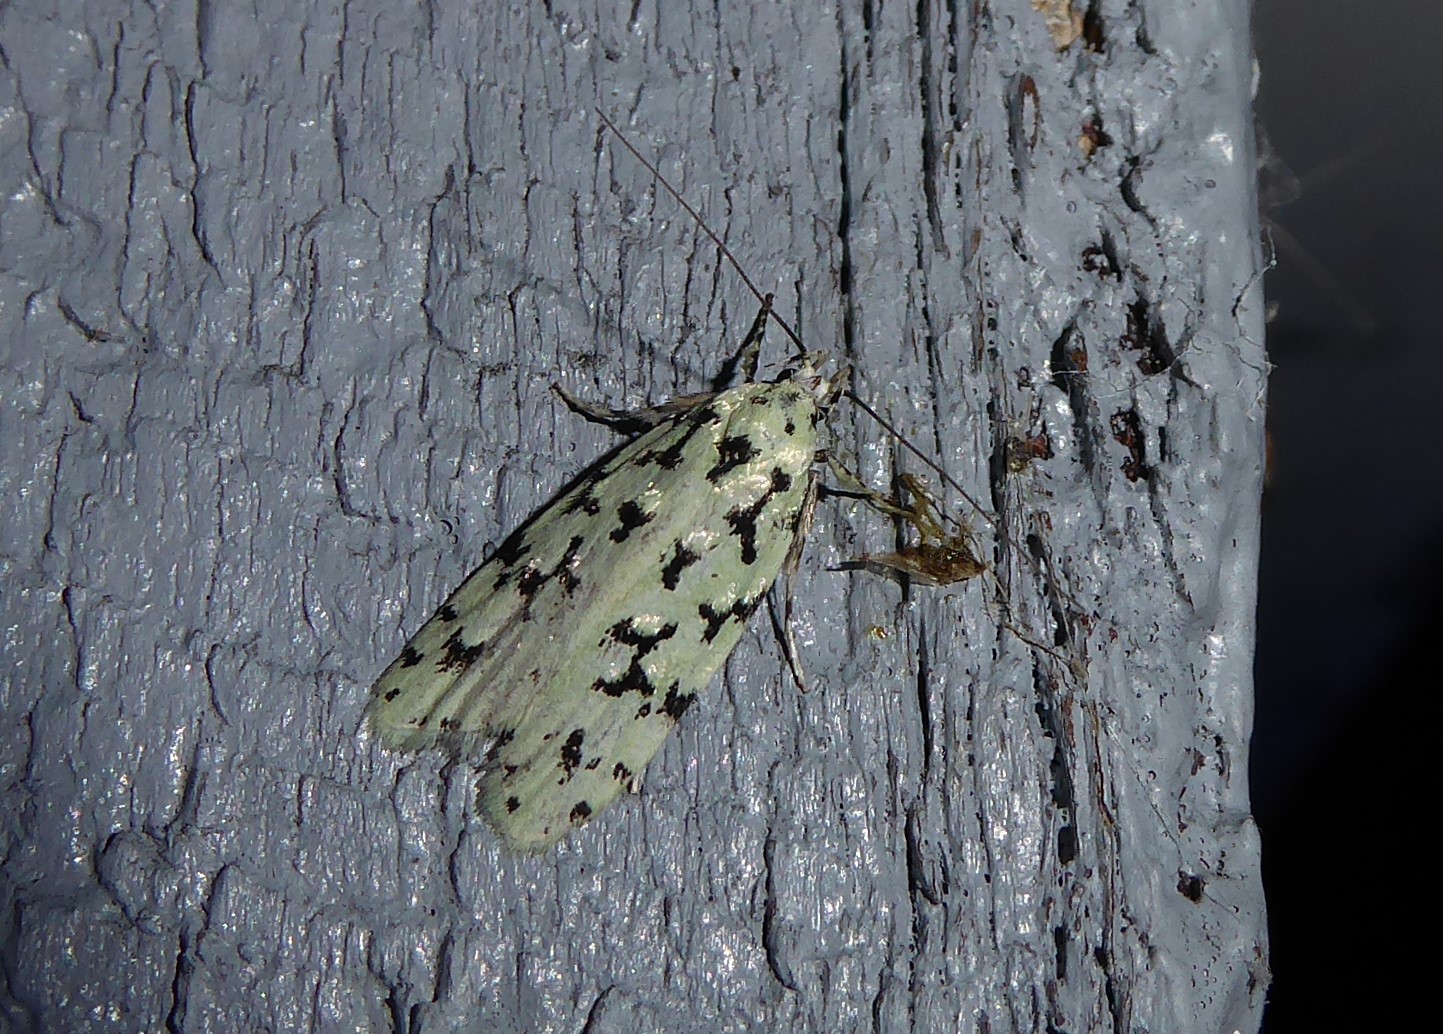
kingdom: Animalia
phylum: Arthropoda
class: Insecta
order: Lepidoptera
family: Oecophoridae
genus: Izatha
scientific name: Izatha huttoni
